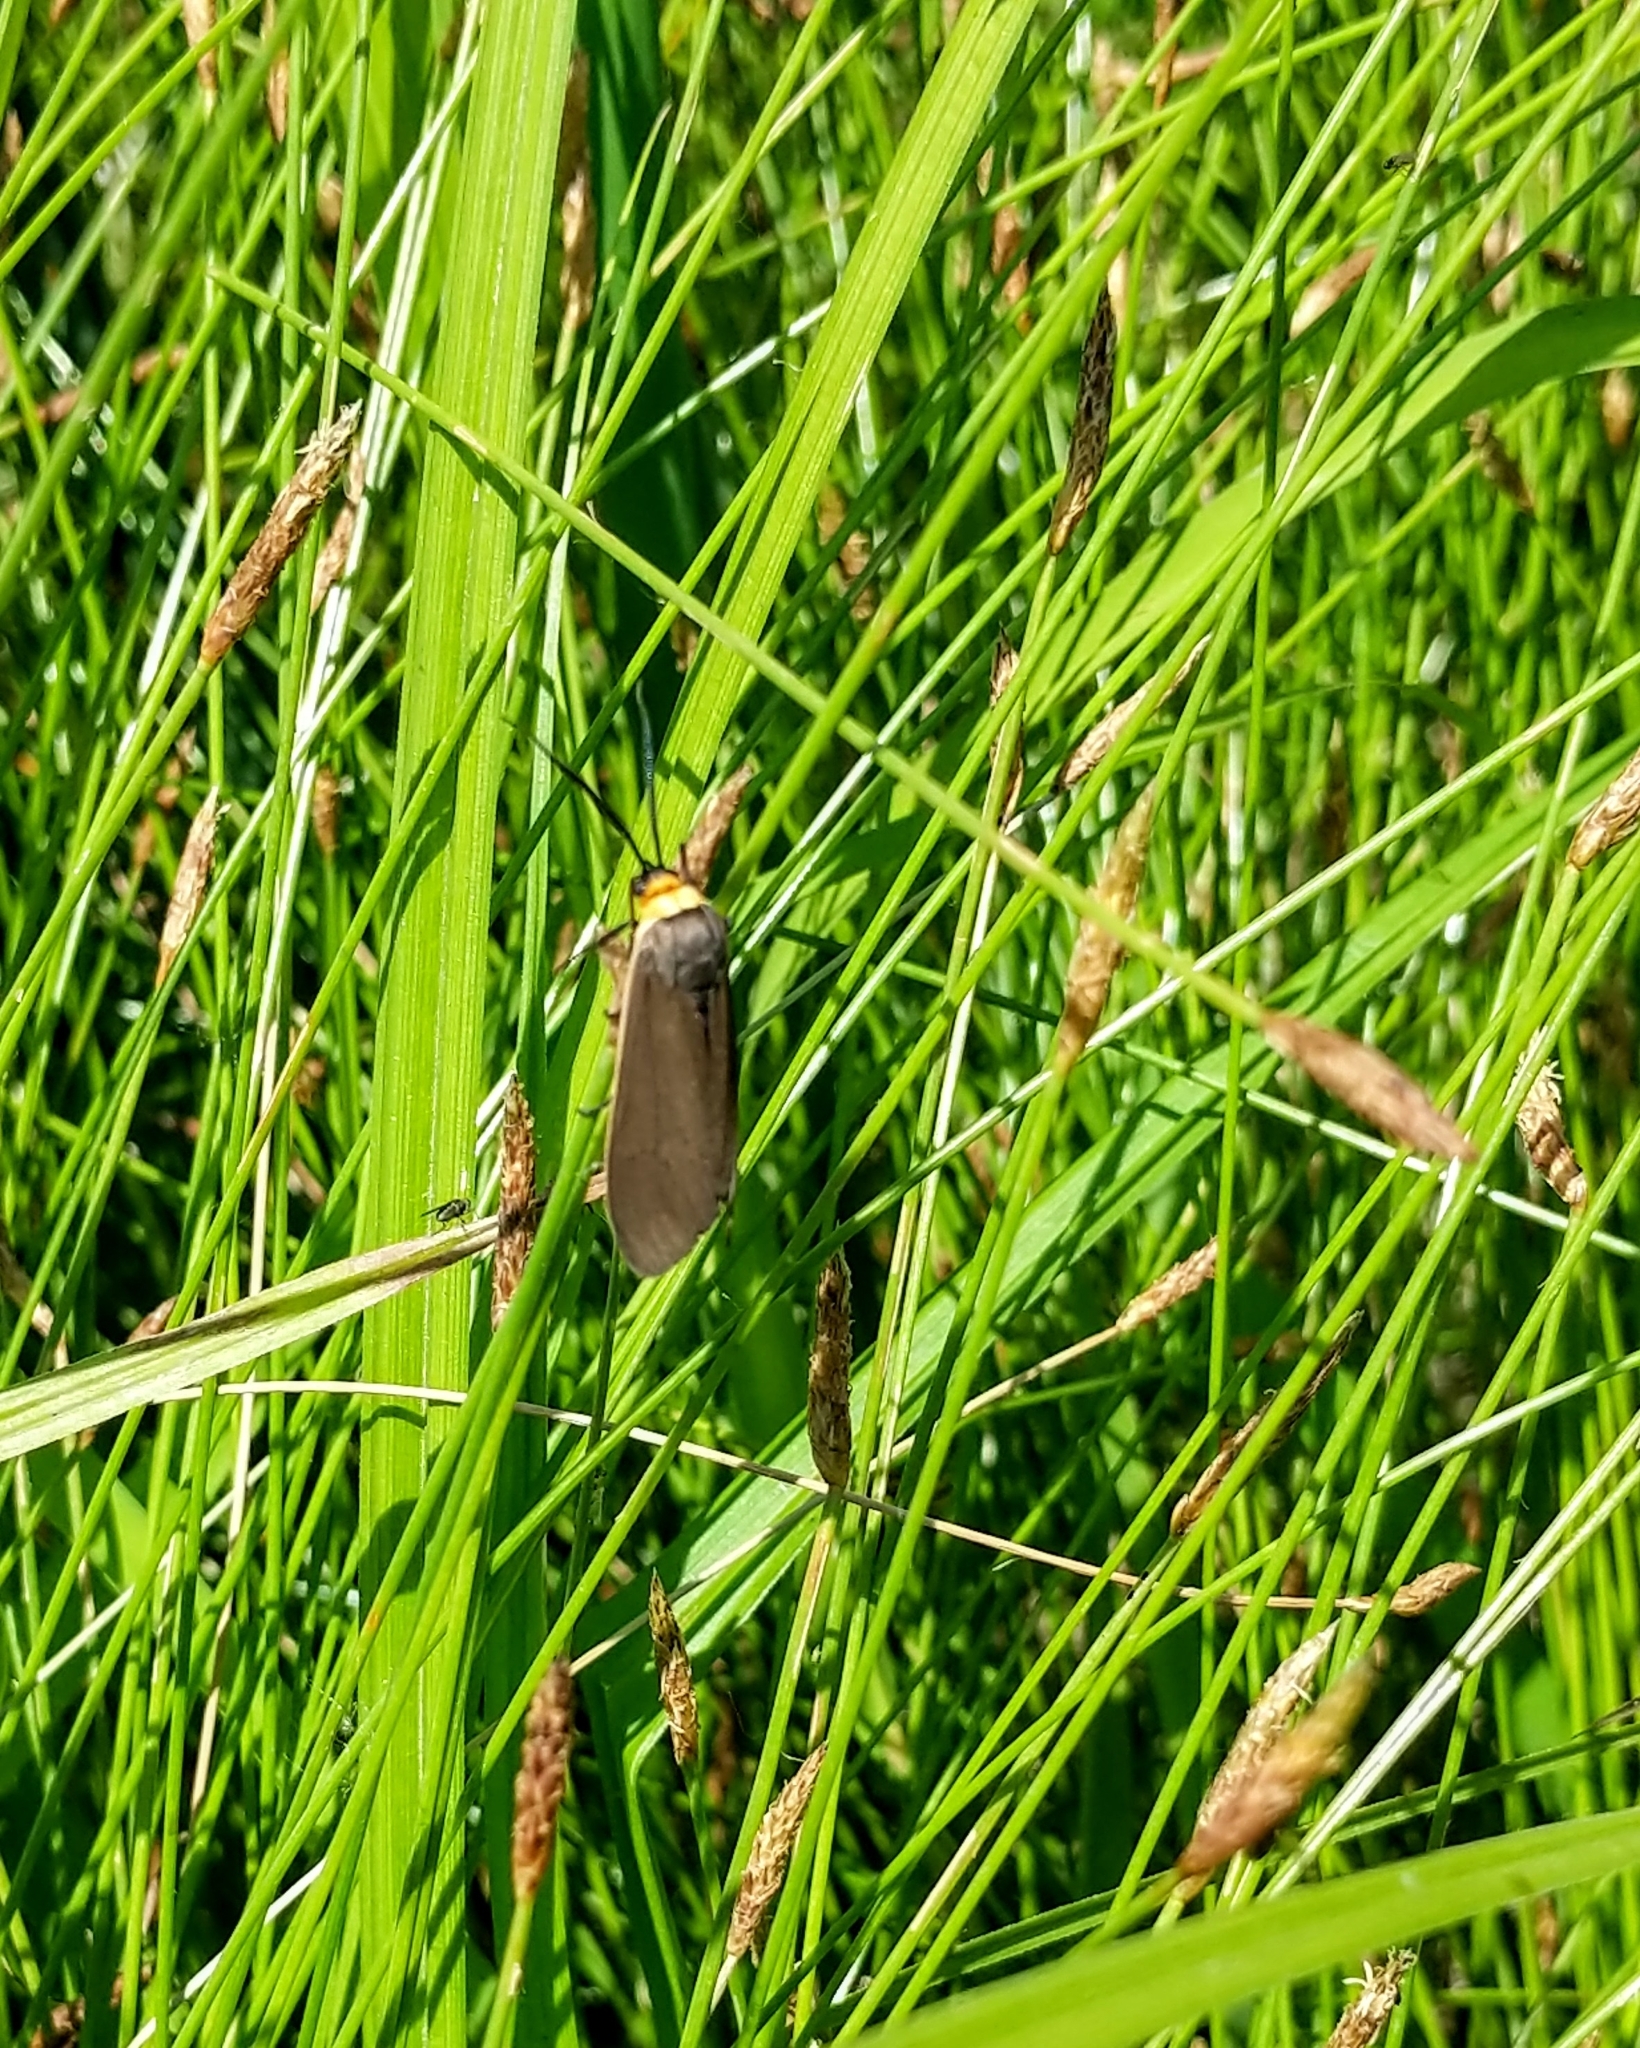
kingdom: Animalia
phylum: Arthropoda
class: Insecta
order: Lepidoptera
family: Erebidae
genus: Cisseps
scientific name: Cisseps fulvicollis
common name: Yellow-collared scape moth
